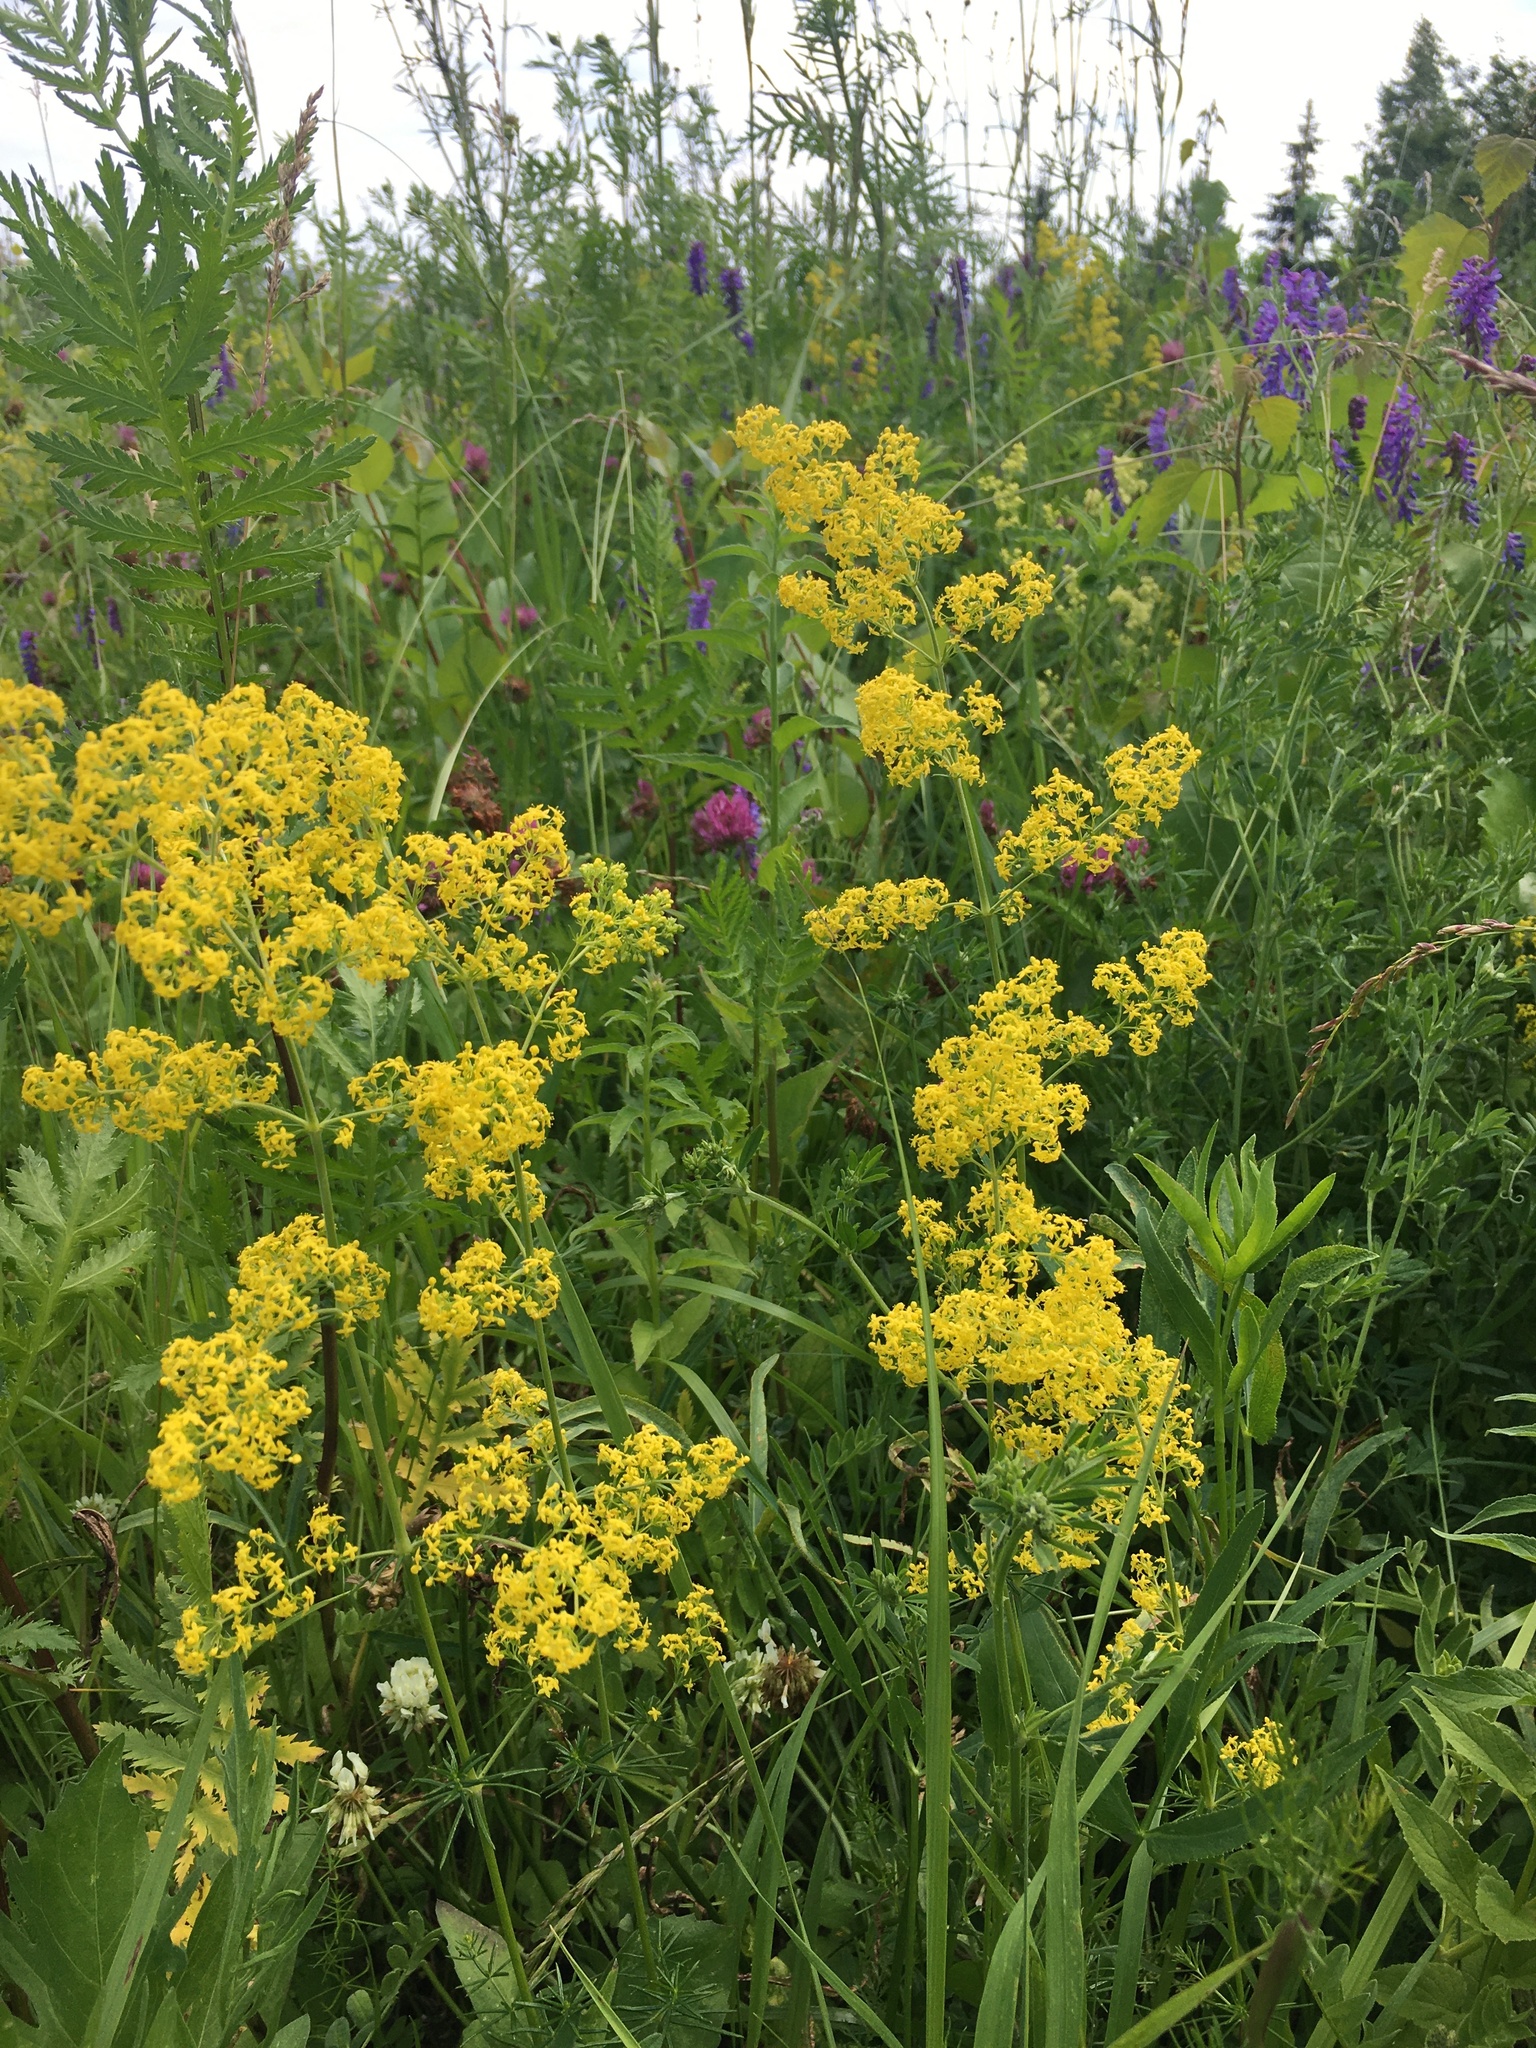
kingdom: Plantae
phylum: Tracheophyta
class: Magnoliopsida
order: Gentianales
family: Rubiaceae
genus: Galium
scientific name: Galium verum
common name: Lady's bedstraw
